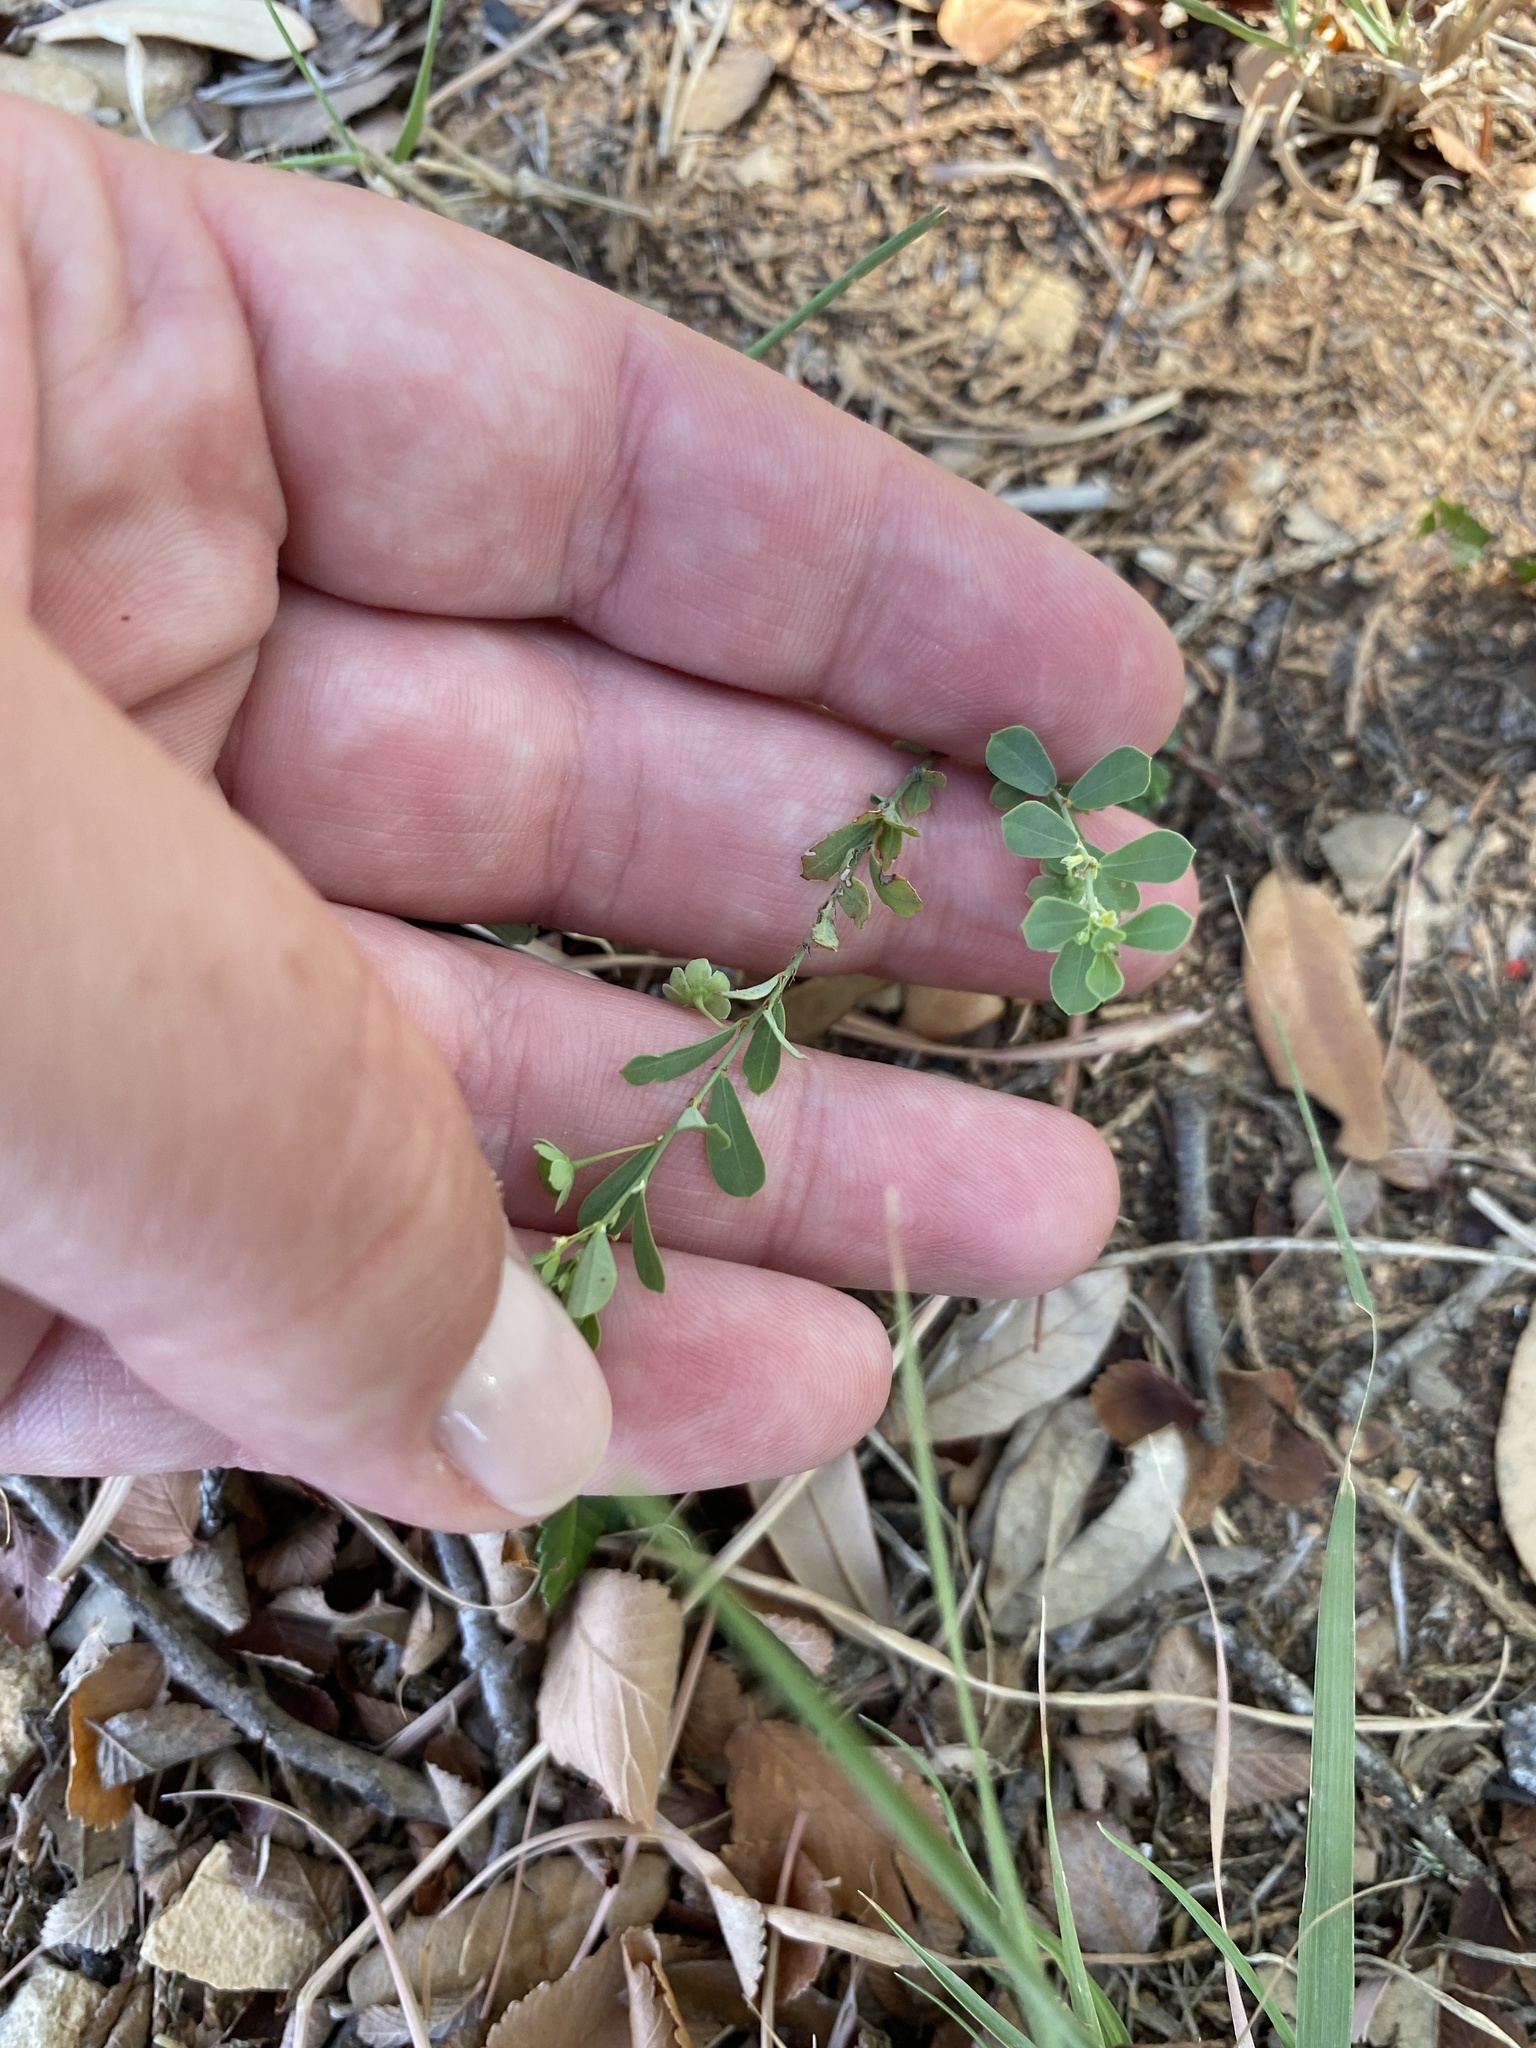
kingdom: Plantae
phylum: Tracheophyta
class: Magnoliopsida
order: Malpighiales
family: Phyllanthaceae
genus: Phyllanthus
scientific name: Phyllanthus polygonoides
